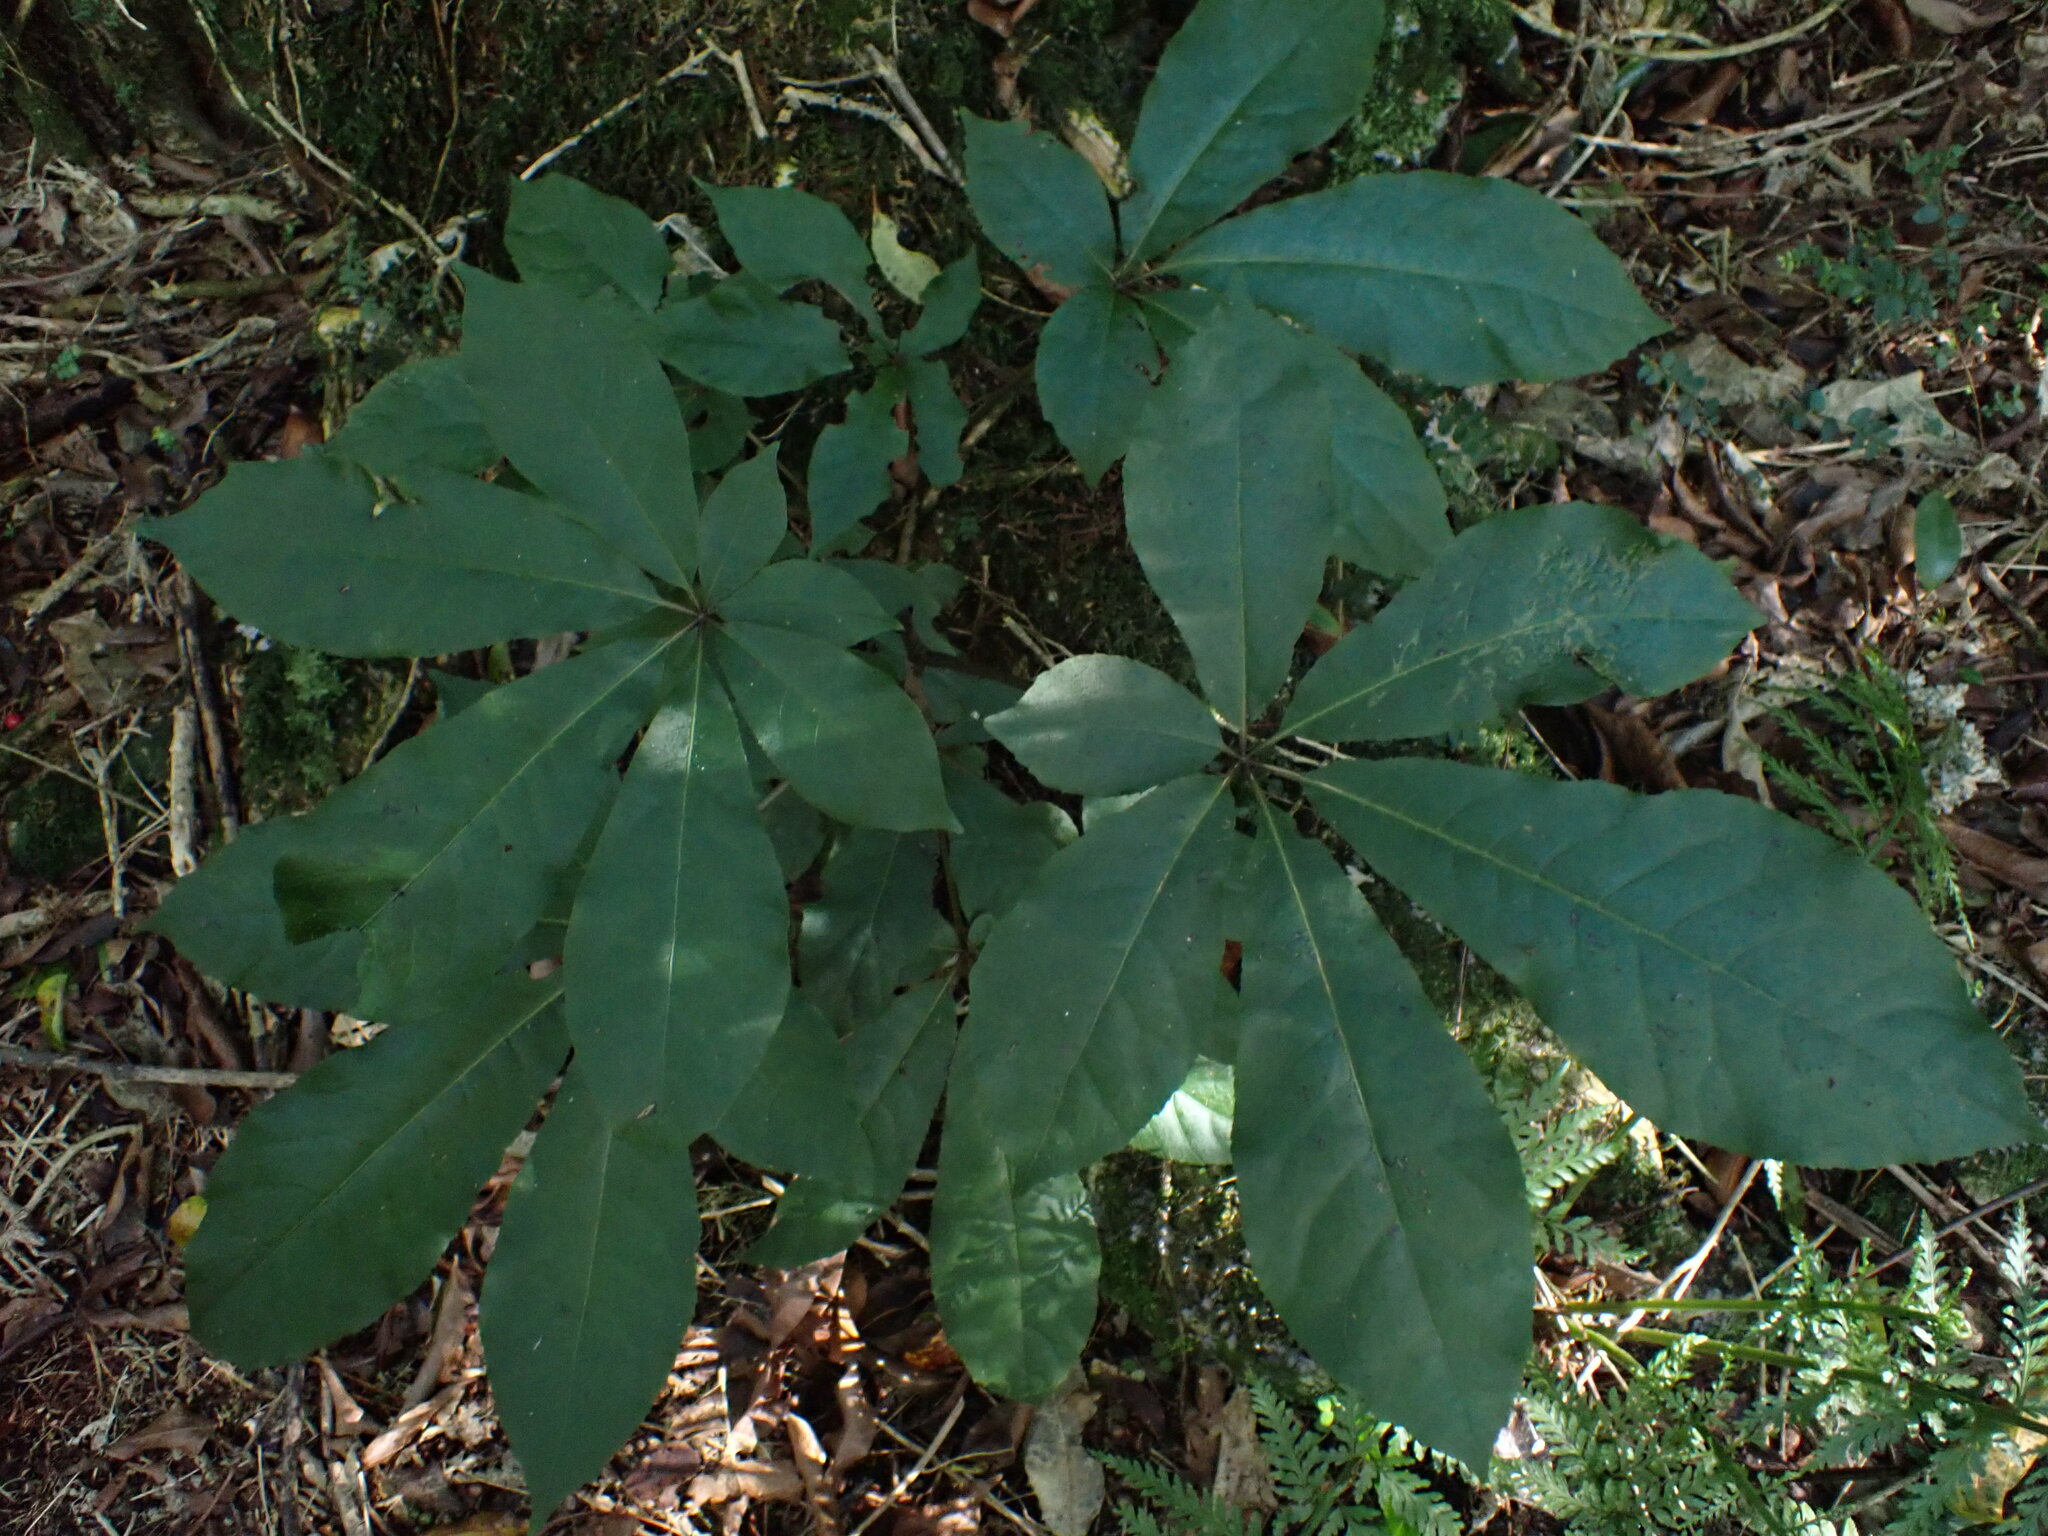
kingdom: Plantae
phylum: Tracheophyta
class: Magnoliopsida
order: Apiales
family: Araliaceae
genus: Schefflera
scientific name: Schefflera digitata
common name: Pate
